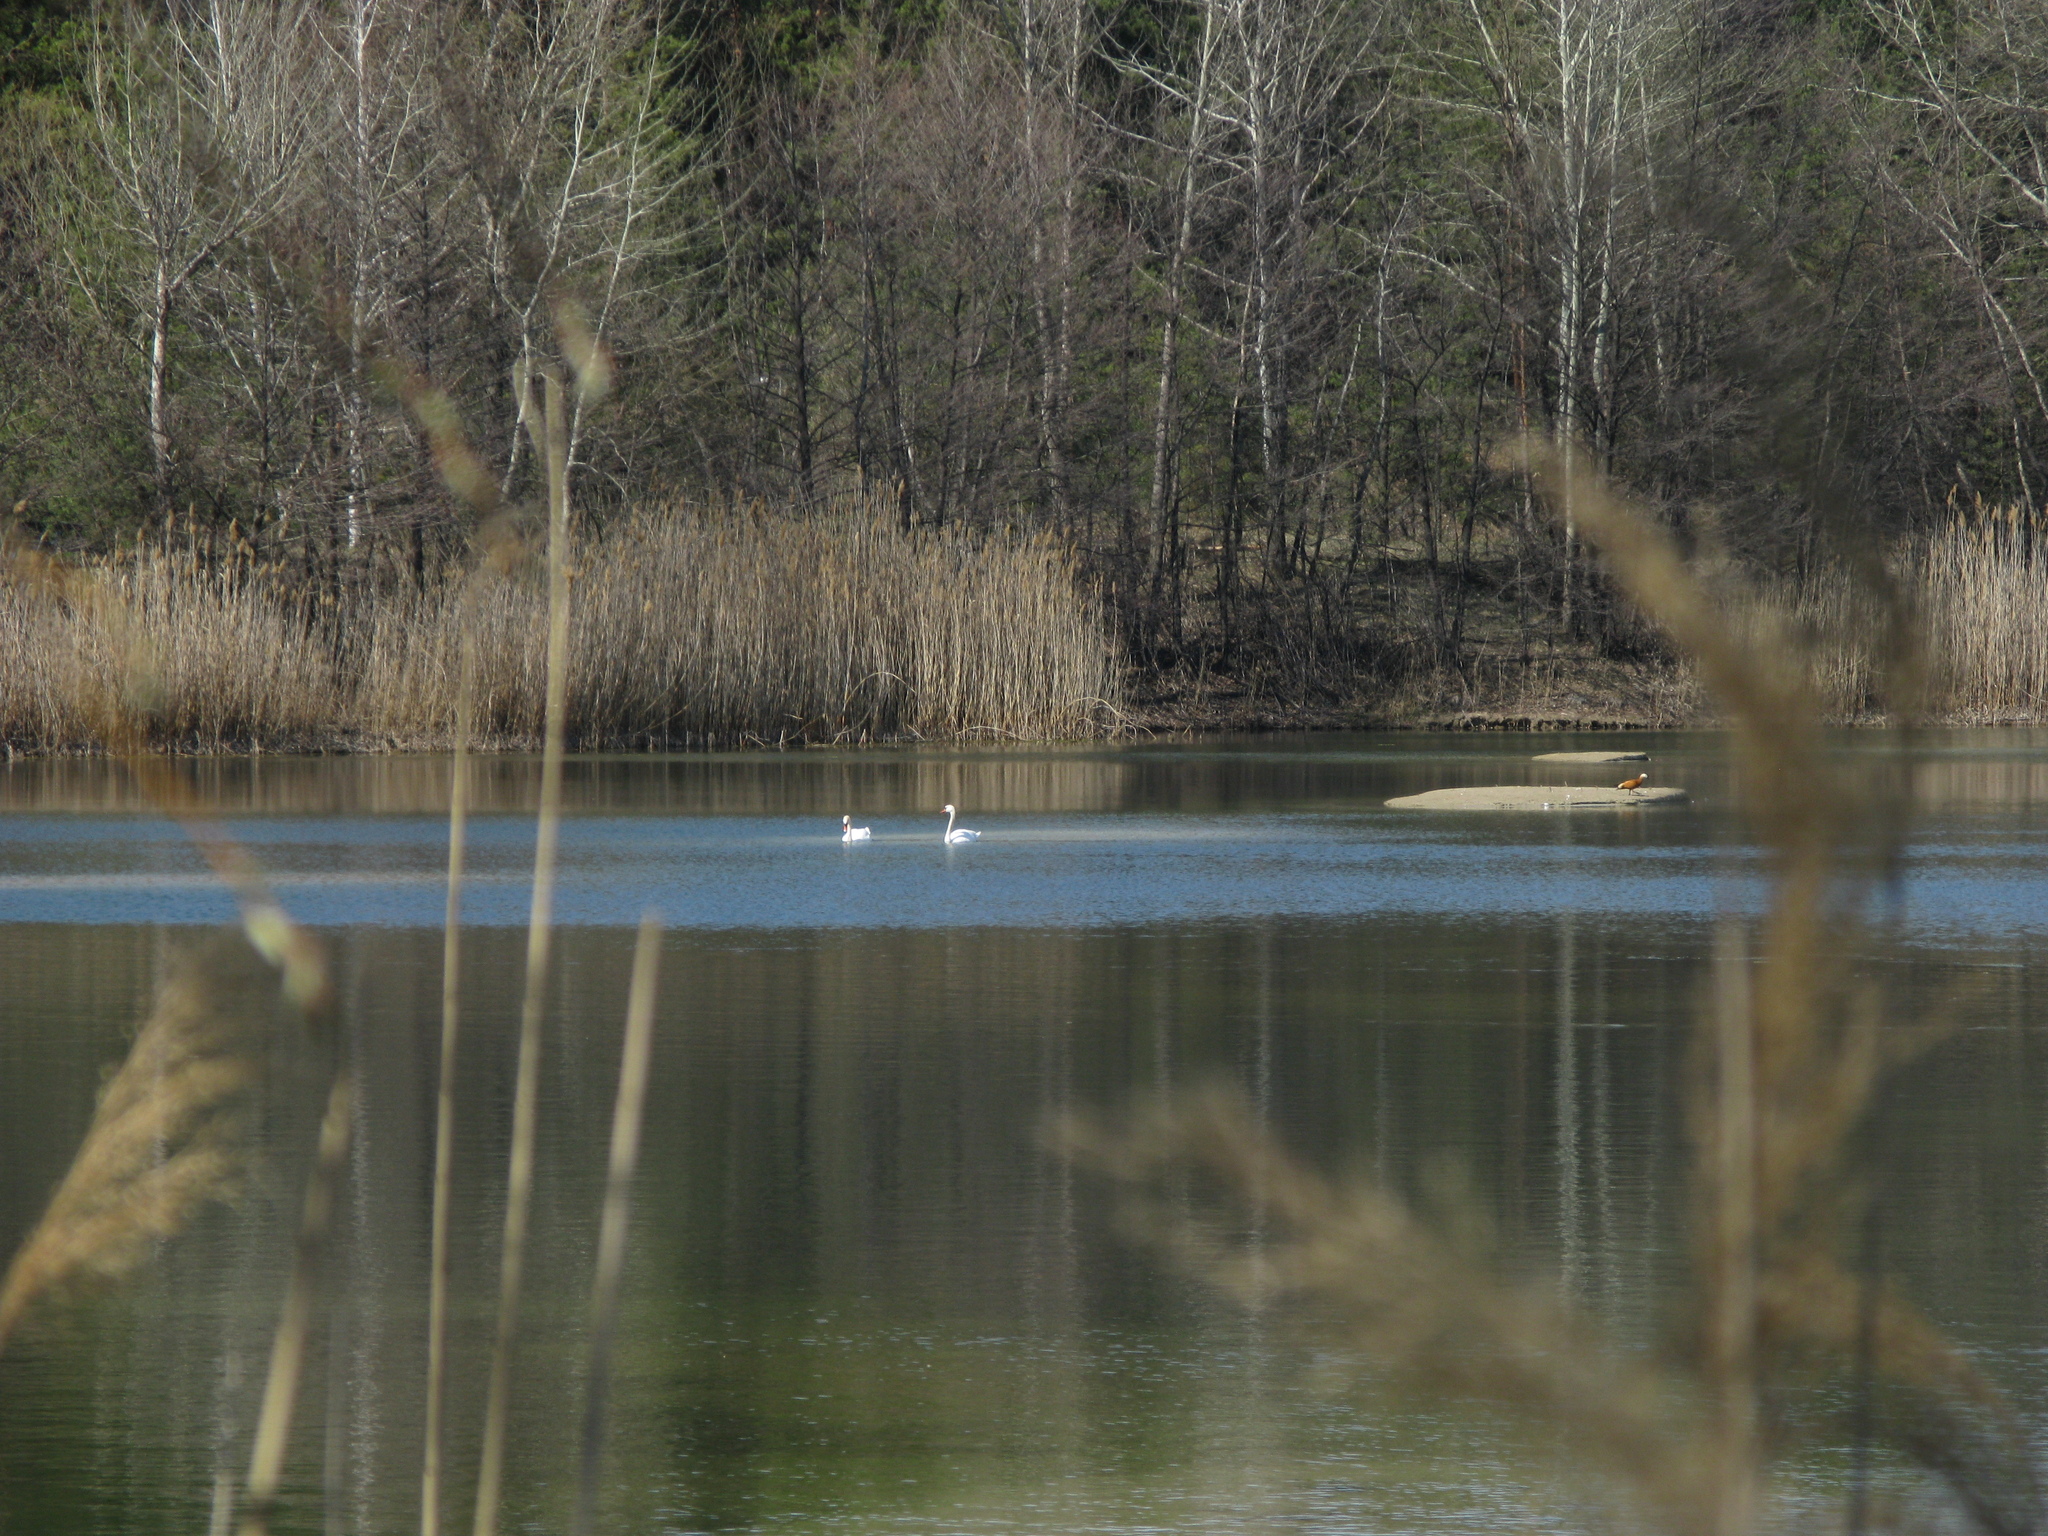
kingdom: Animalia
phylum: Chordata
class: Aves
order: Anseriformes
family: Anatidae
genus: Cygnus
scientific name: Cygnus olor
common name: Mute swan
